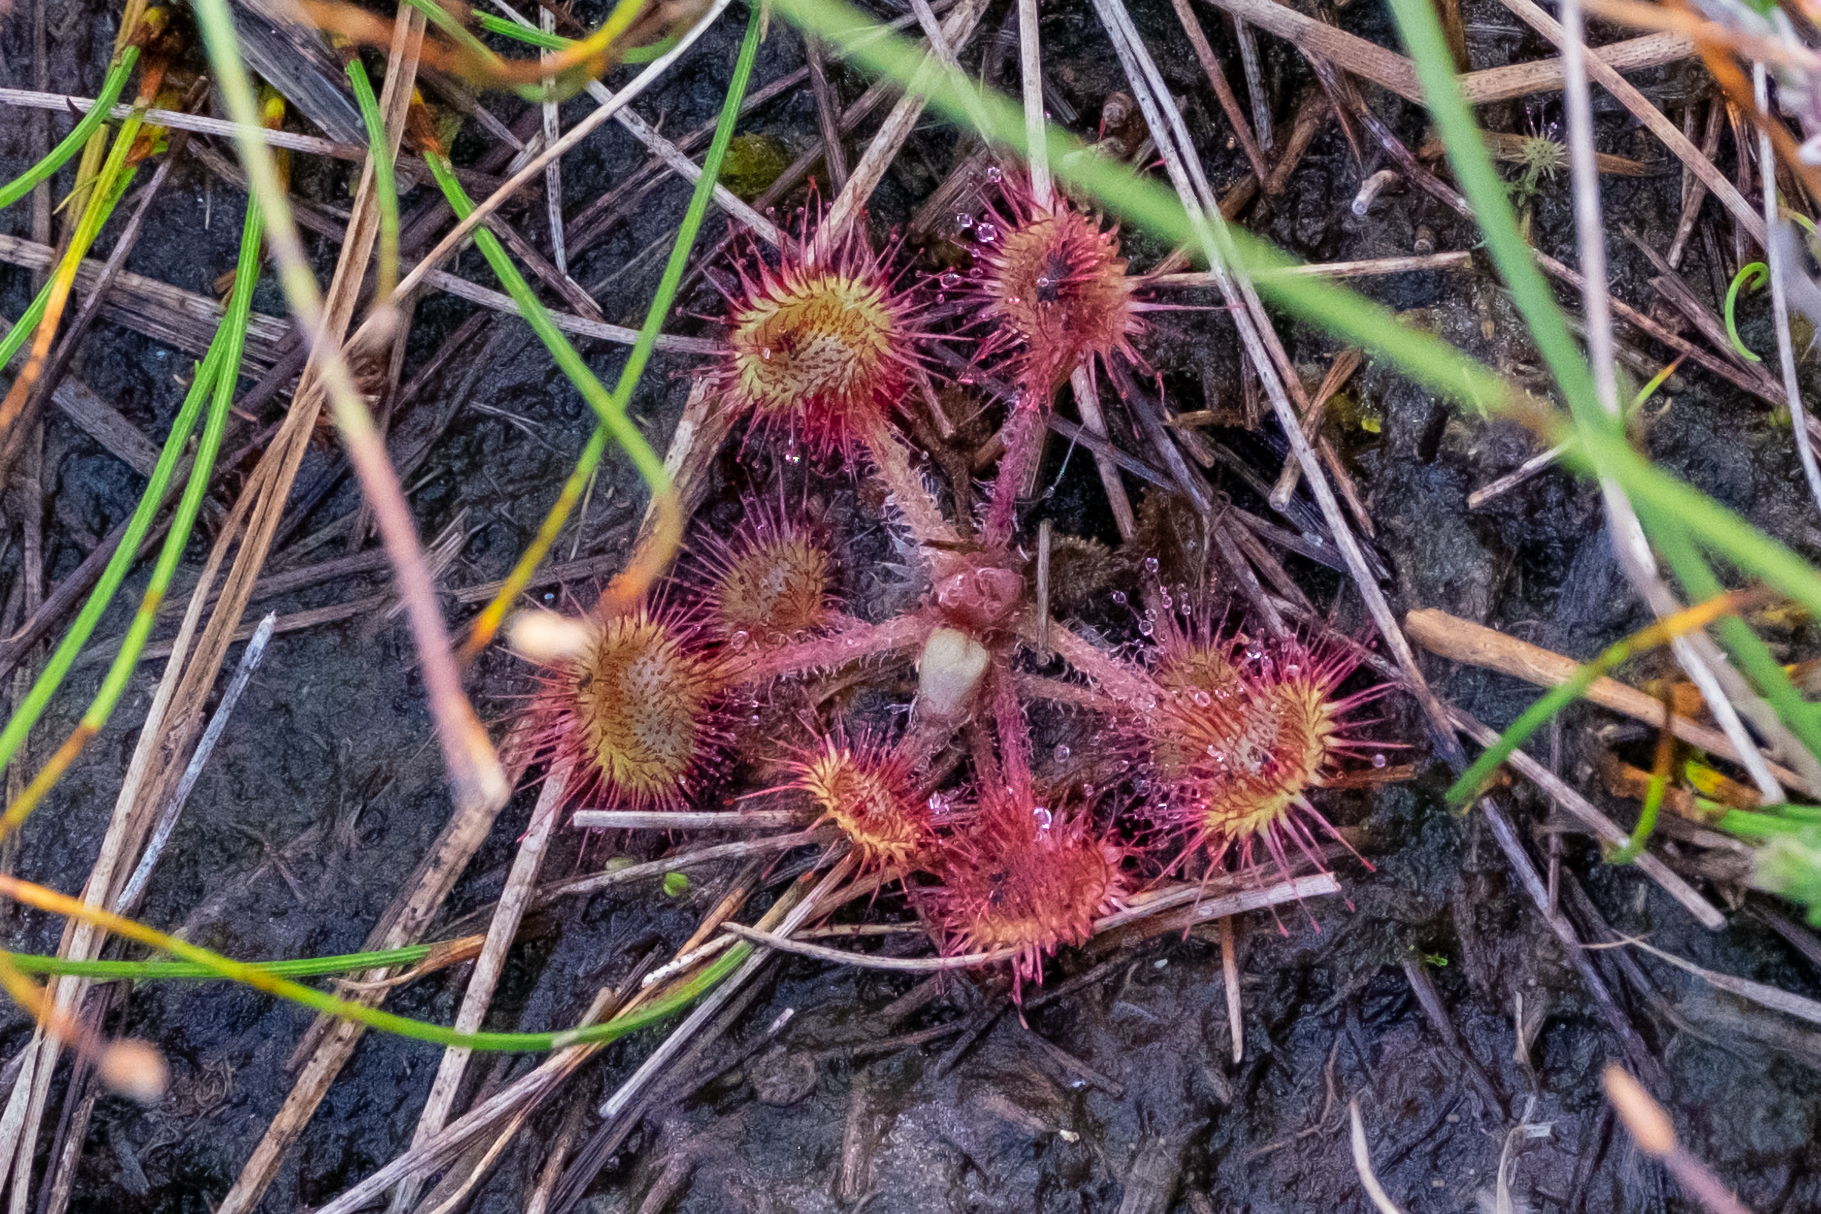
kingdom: Plantae
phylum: Tracheophyta
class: Magnoliopsida
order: Caryophyllales
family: Droseraceae
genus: Drosera
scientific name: Drosera rotundifolia
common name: Round-leaved sundew
